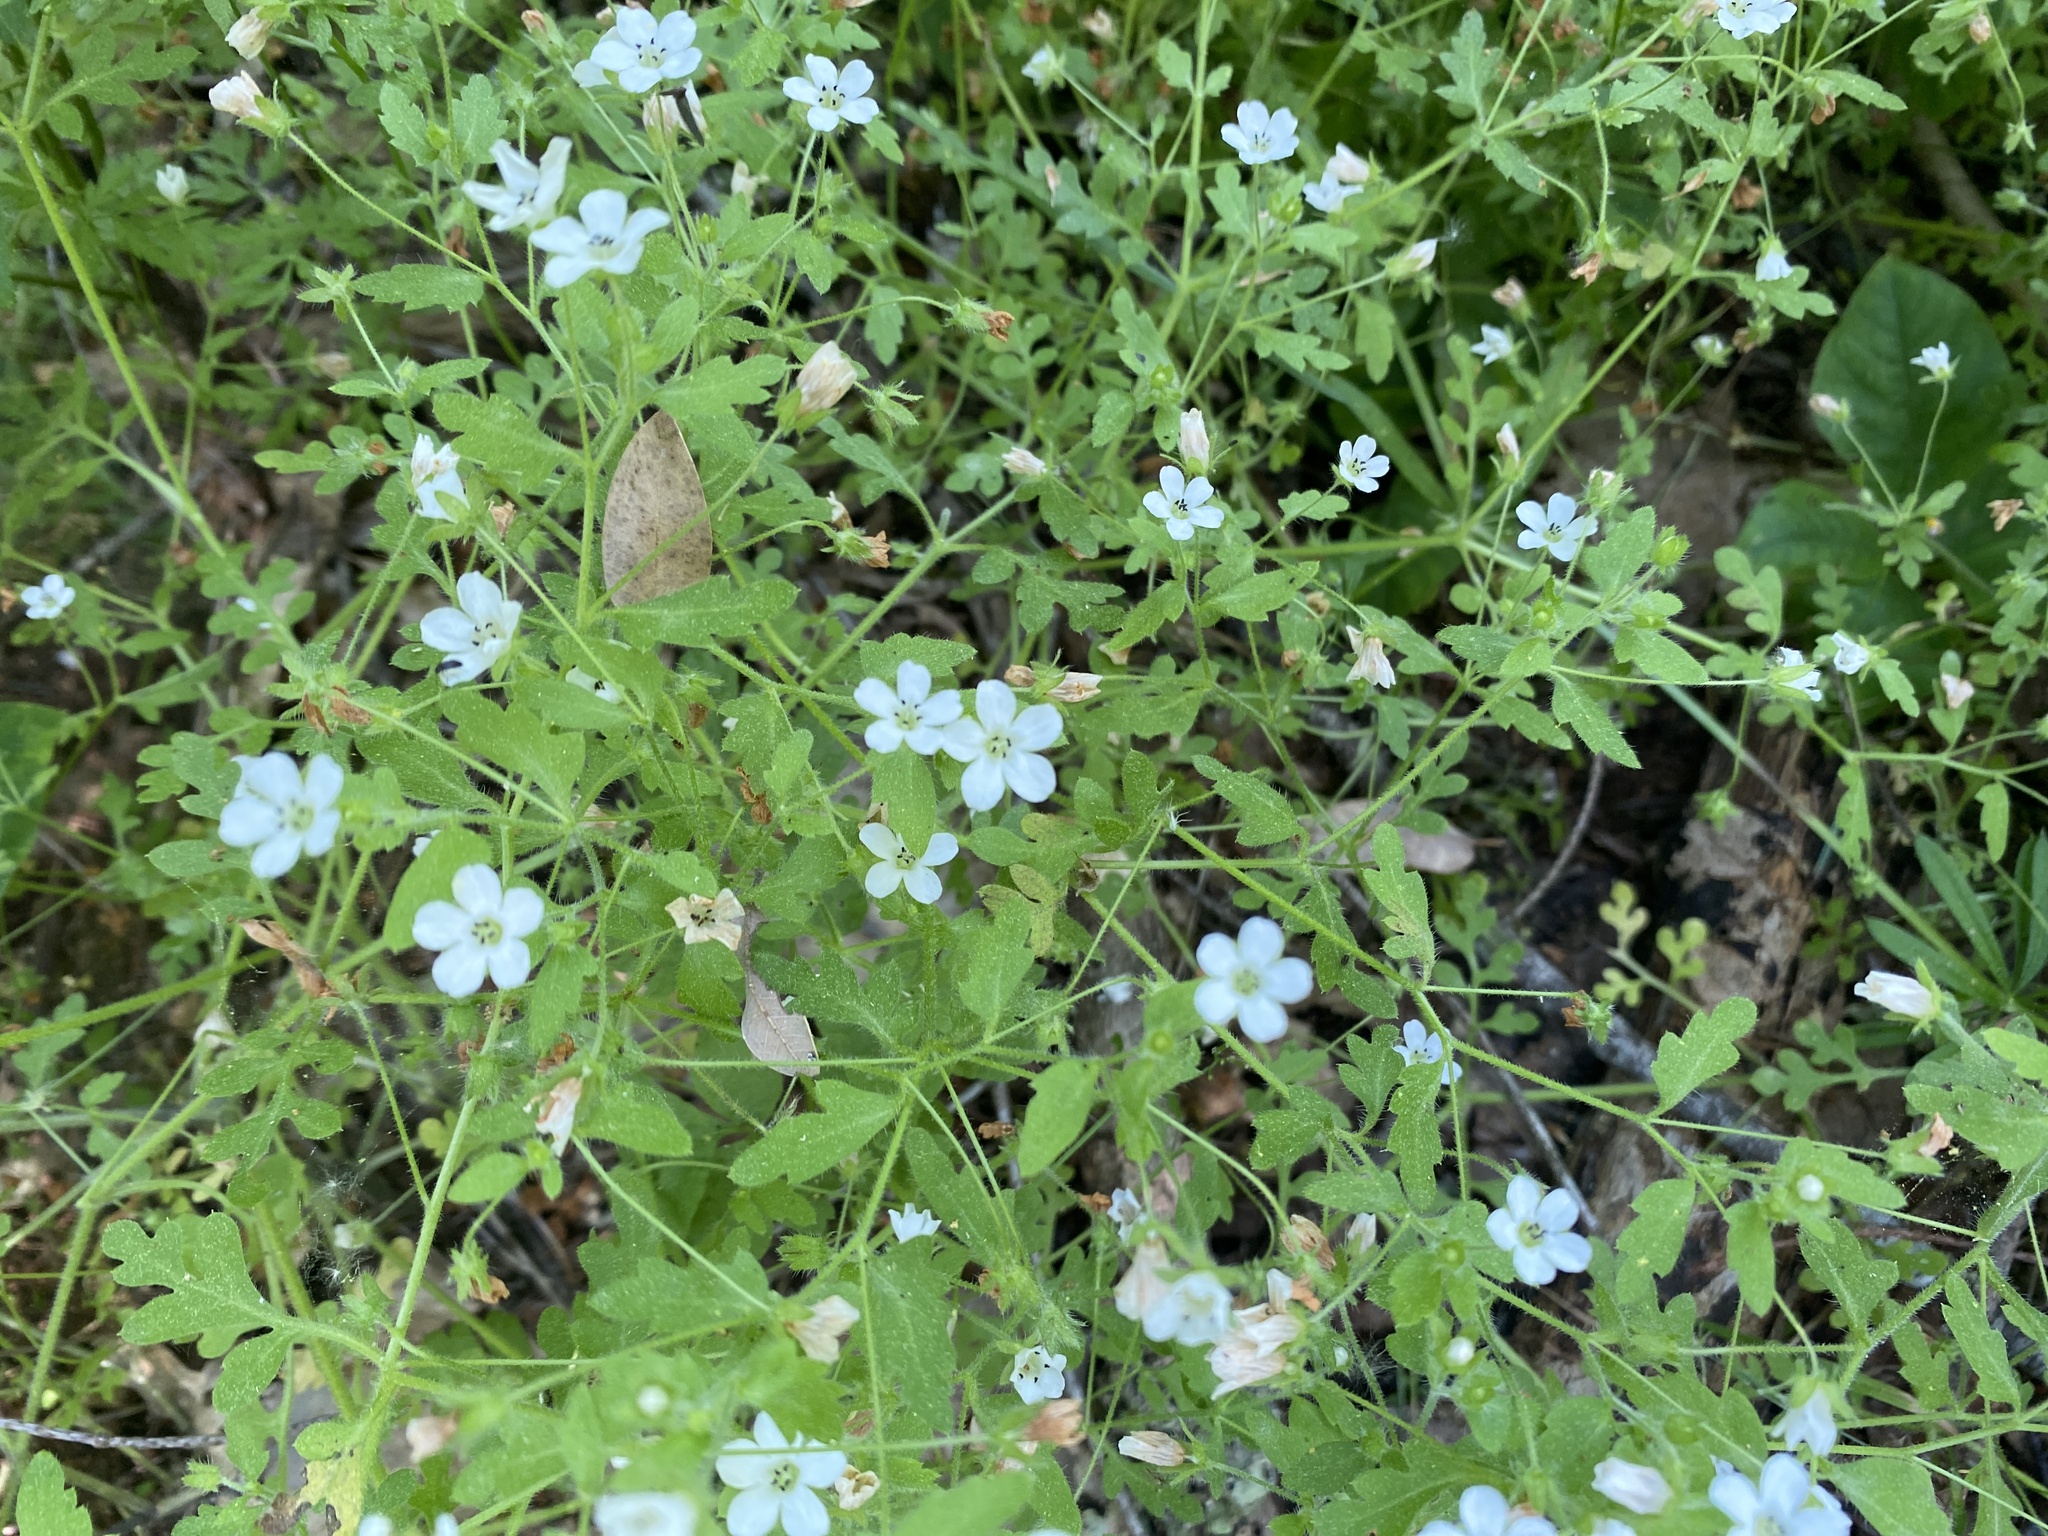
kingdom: Plantae
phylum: Tracheophyta
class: Magnoliopsida
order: Boraginales
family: Hydrophyllaceae
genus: Nemophila
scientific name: Nemophila heterophylla
